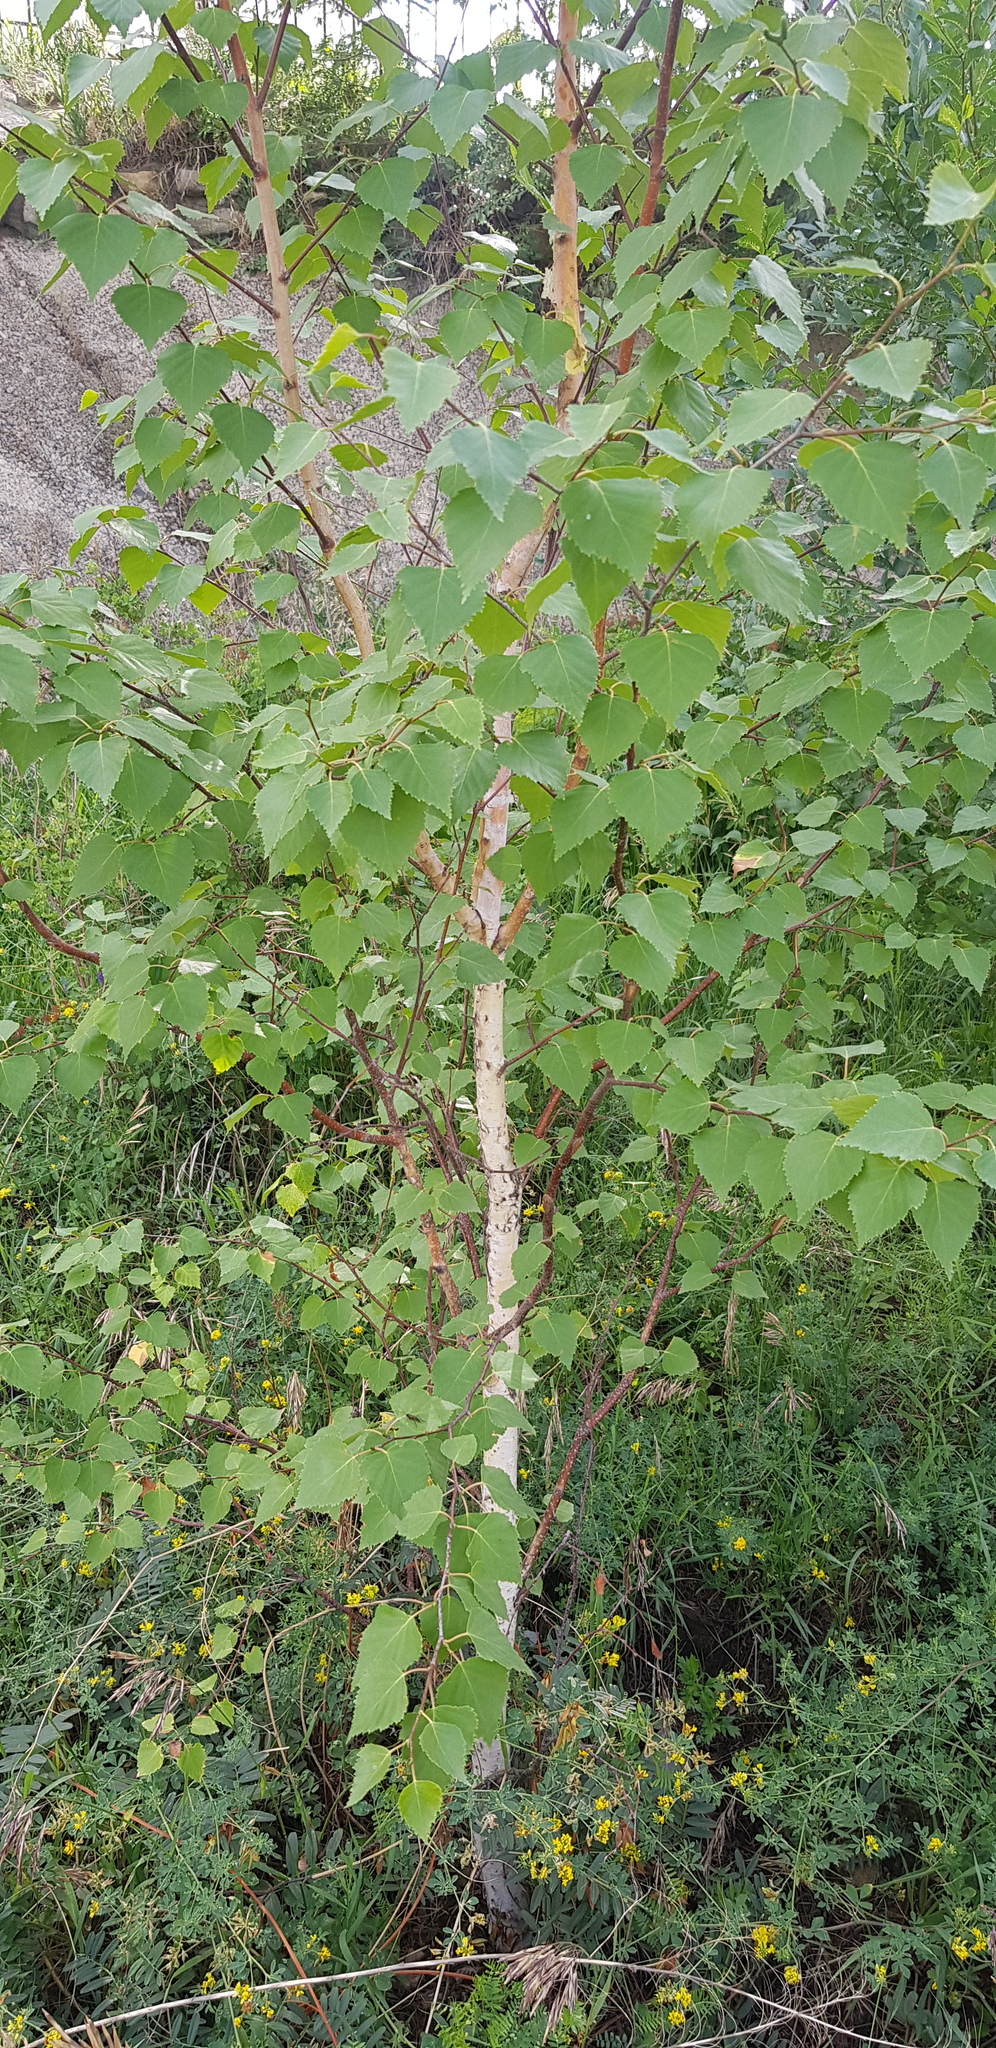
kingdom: Plantae
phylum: Tracheophyta
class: Magnoliopsida
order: Fagales
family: Betulaceae
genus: Betula
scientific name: Betula pendula
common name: Silver birch
